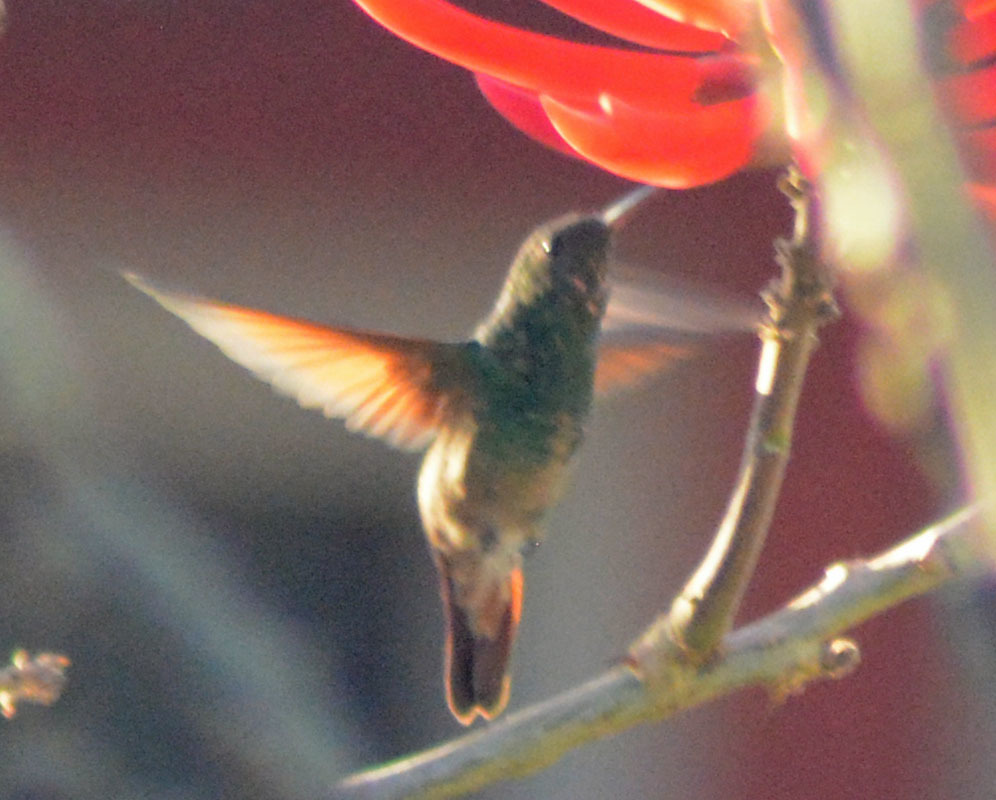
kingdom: Animalia
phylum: Chordata
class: Aves
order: Apodiformes
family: Trochilidae
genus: Saucerottia
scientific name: Saucerottia beryllina
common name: Berylline hummingbird
